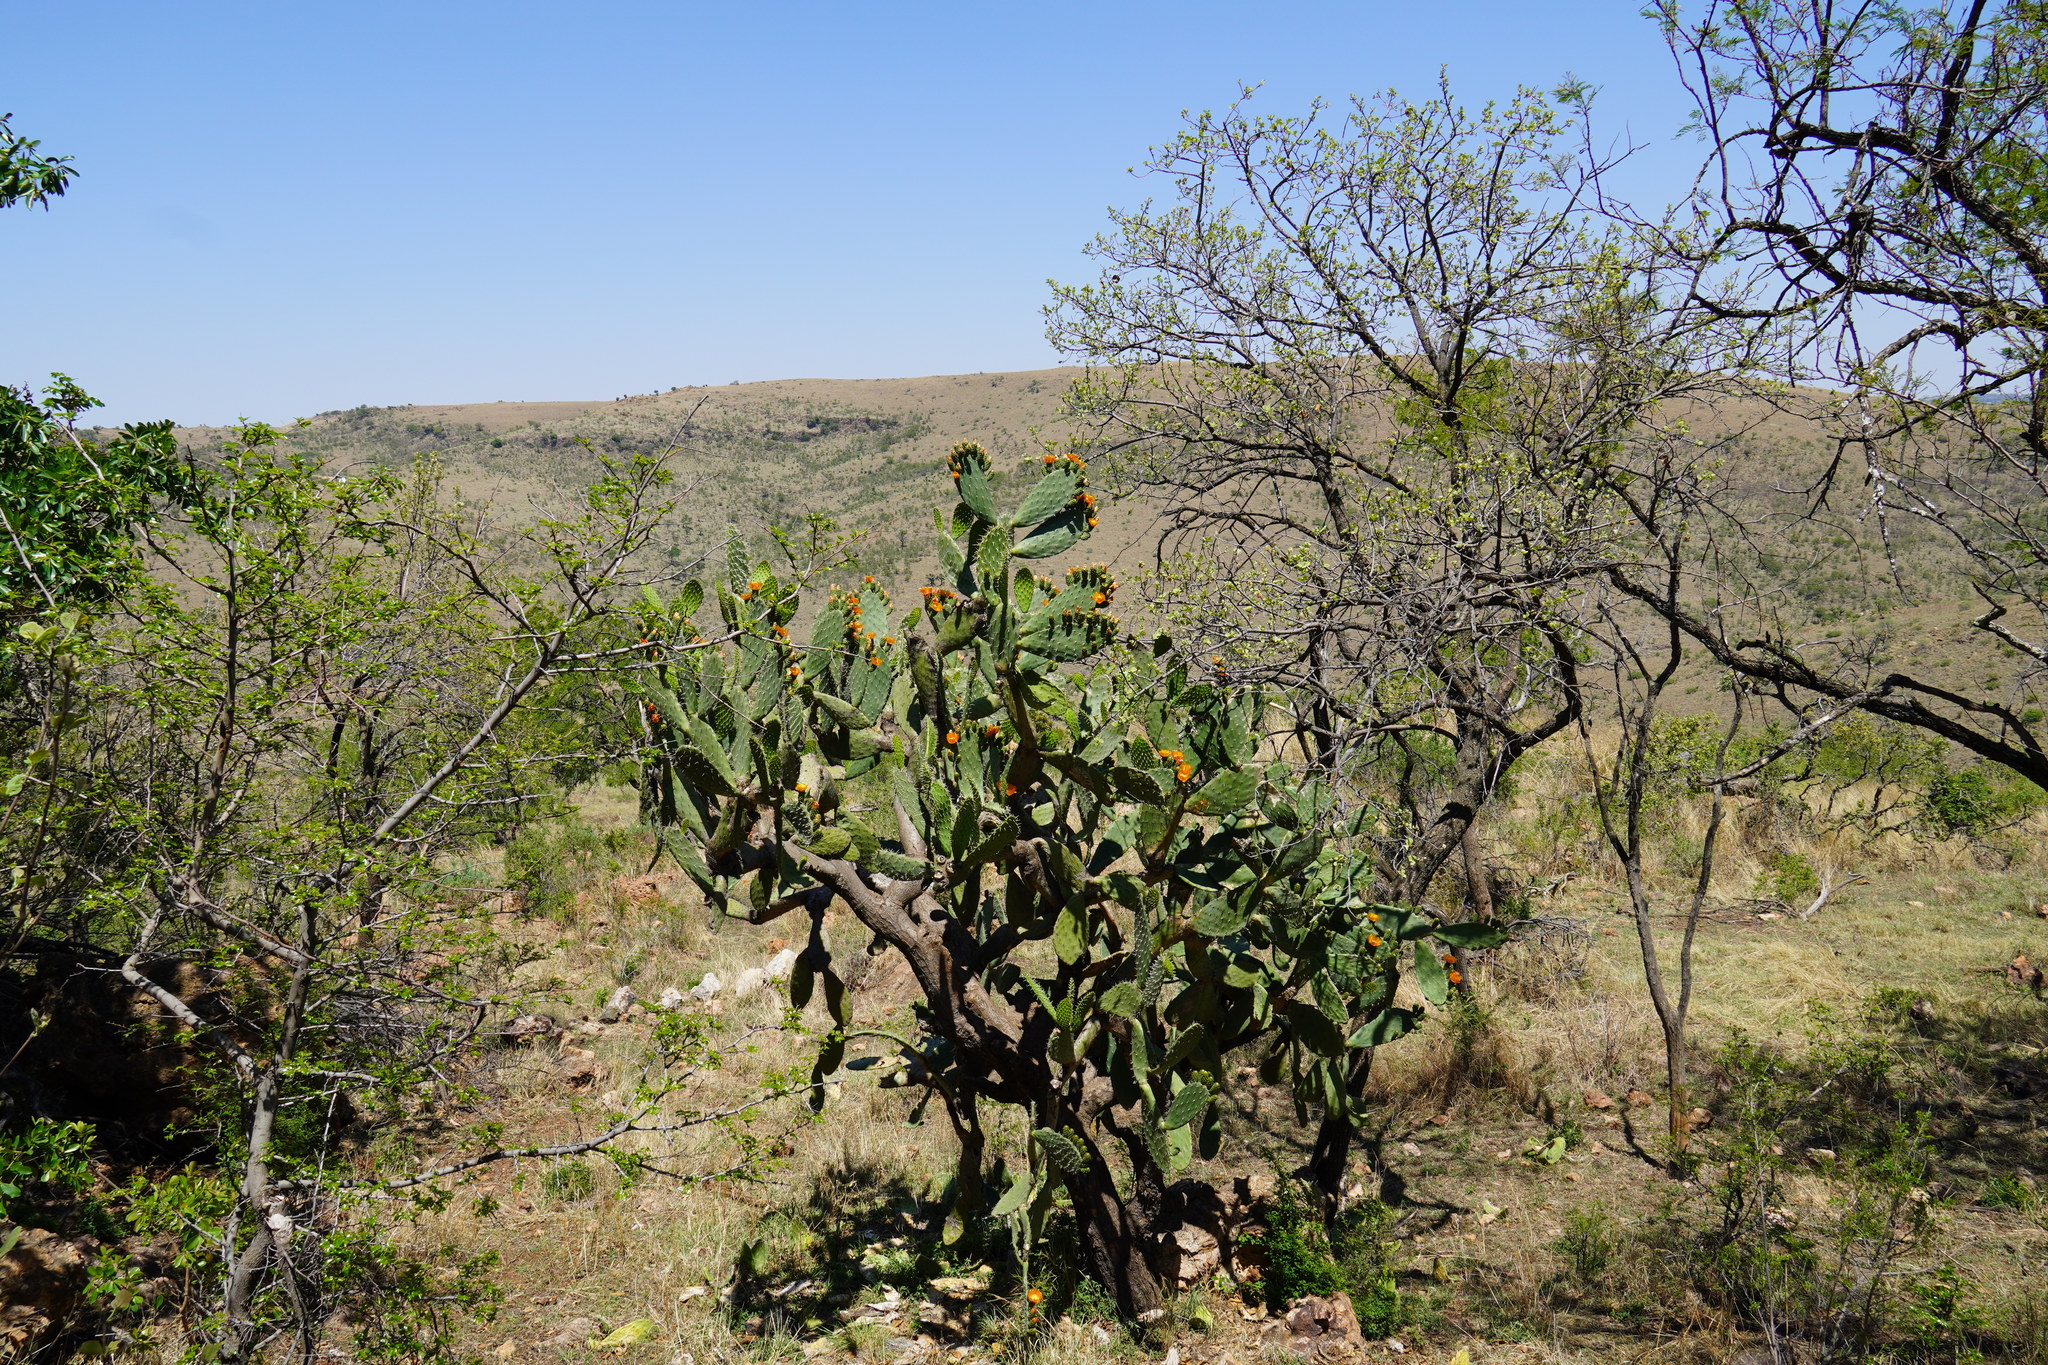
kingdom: Plantae
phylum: Tracheophyta
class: Magnoliopsida
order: Caryophyllales
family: Cactaceae
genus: Opuntia
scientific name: Opuntia ficus-indica
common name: Barbary fig
